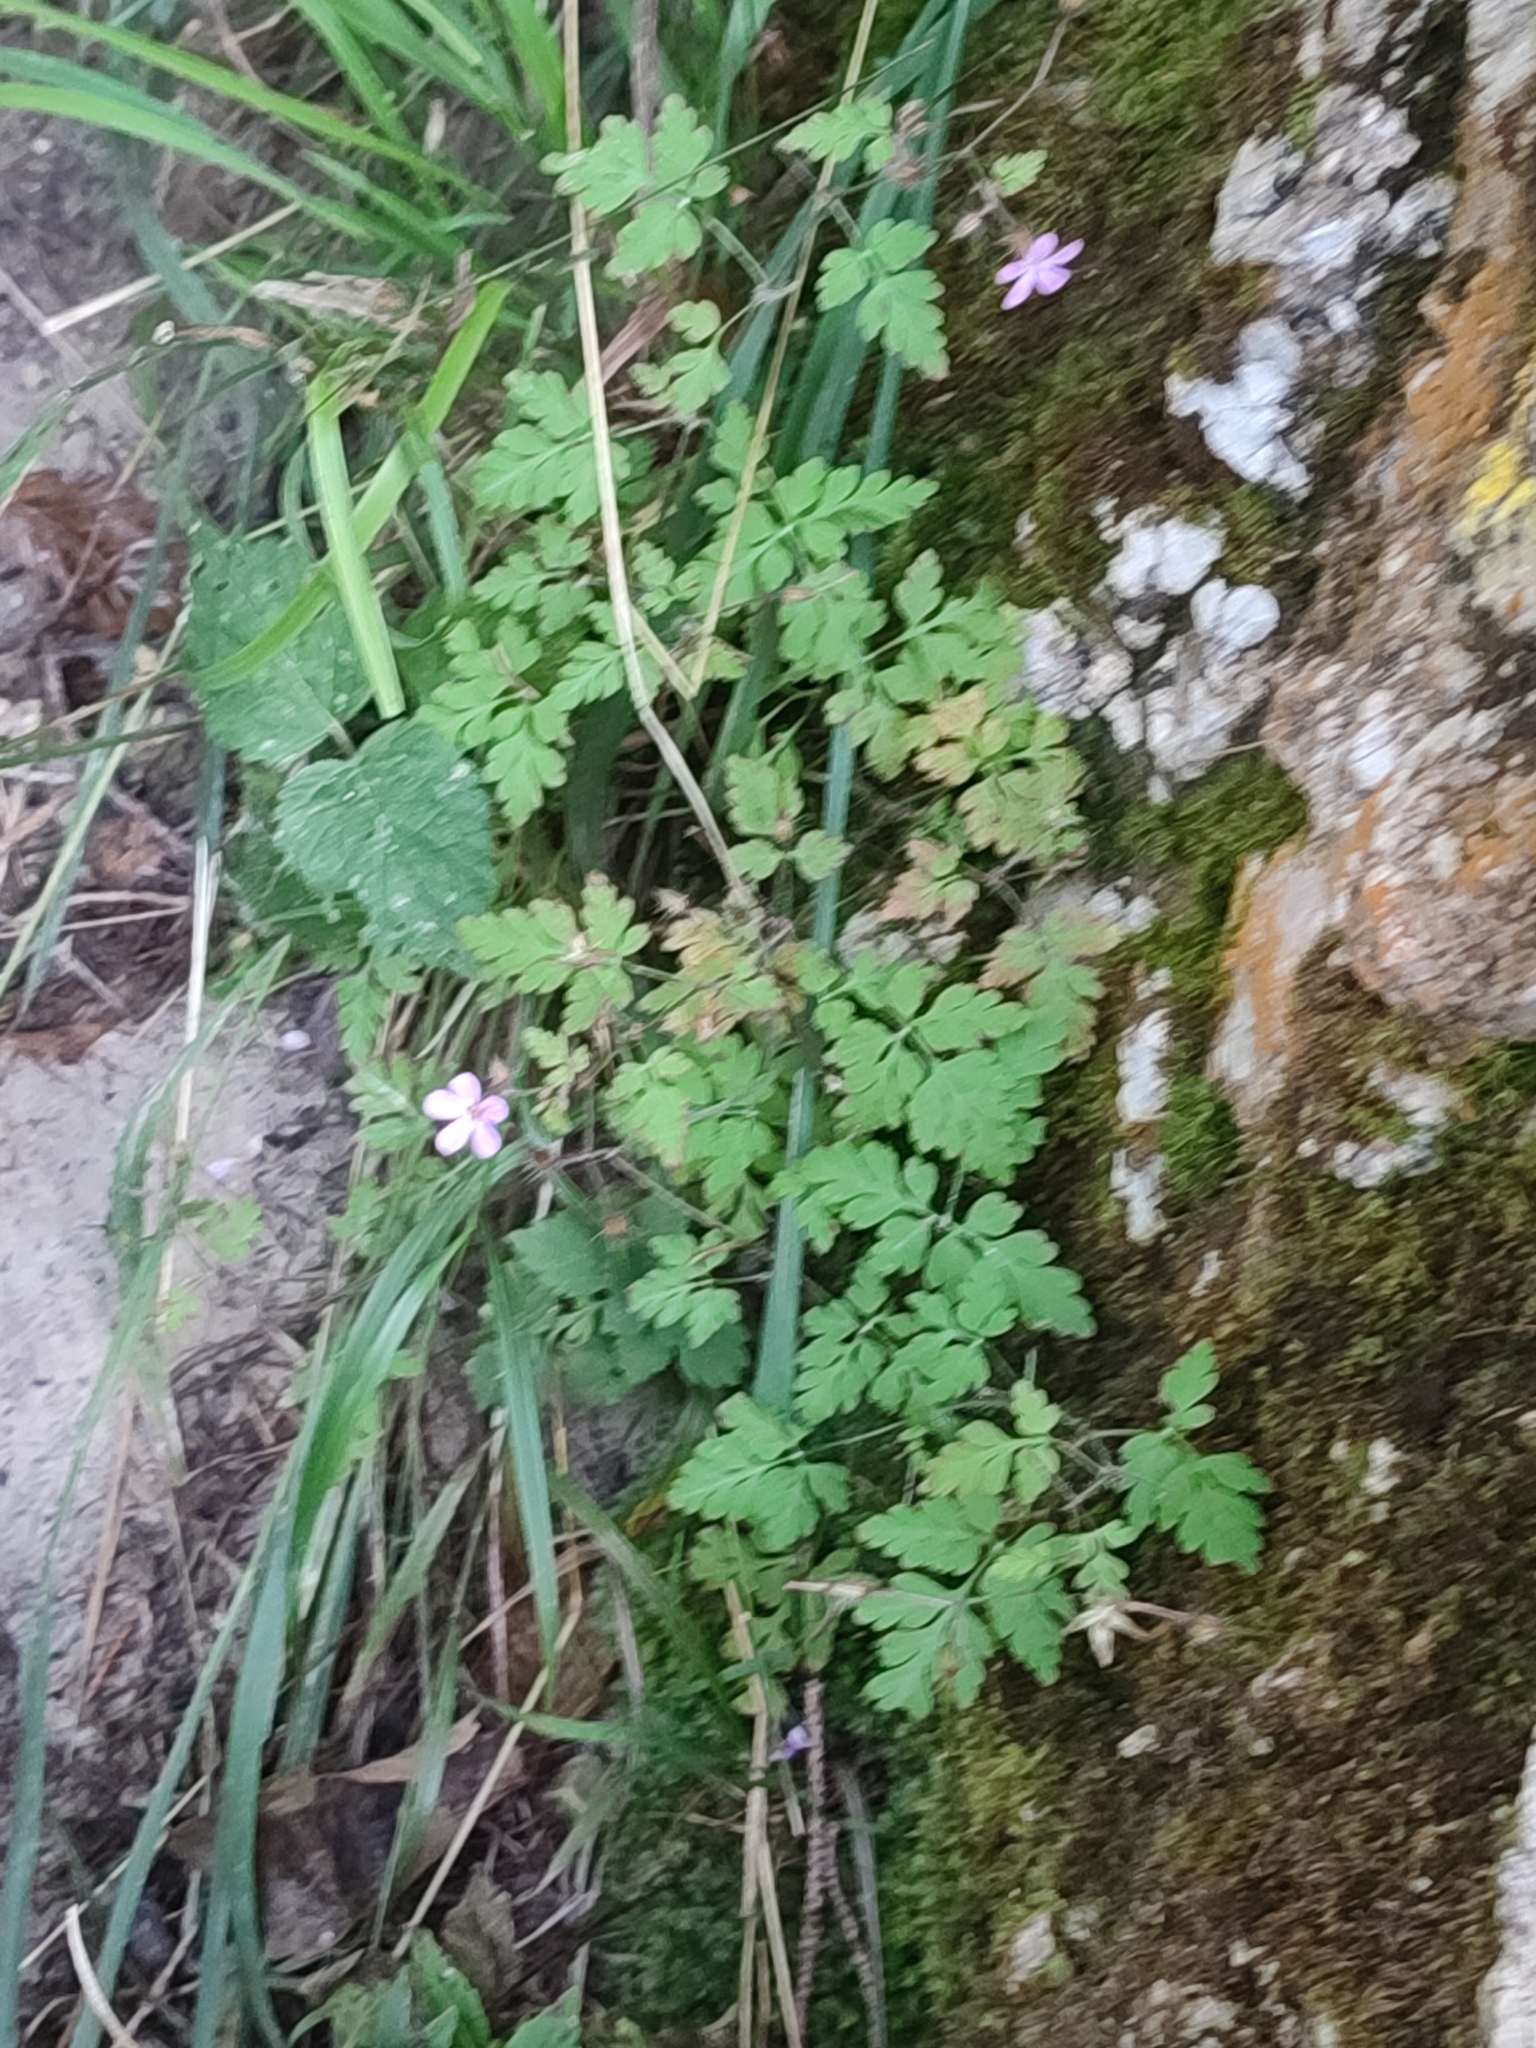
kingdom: Plantae
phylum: Tracheophyta
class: Magnoliopsida
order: Geraniales
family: Geraniaceae
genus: Geranium
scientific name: Geranium robertianum
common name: Herb-robert
